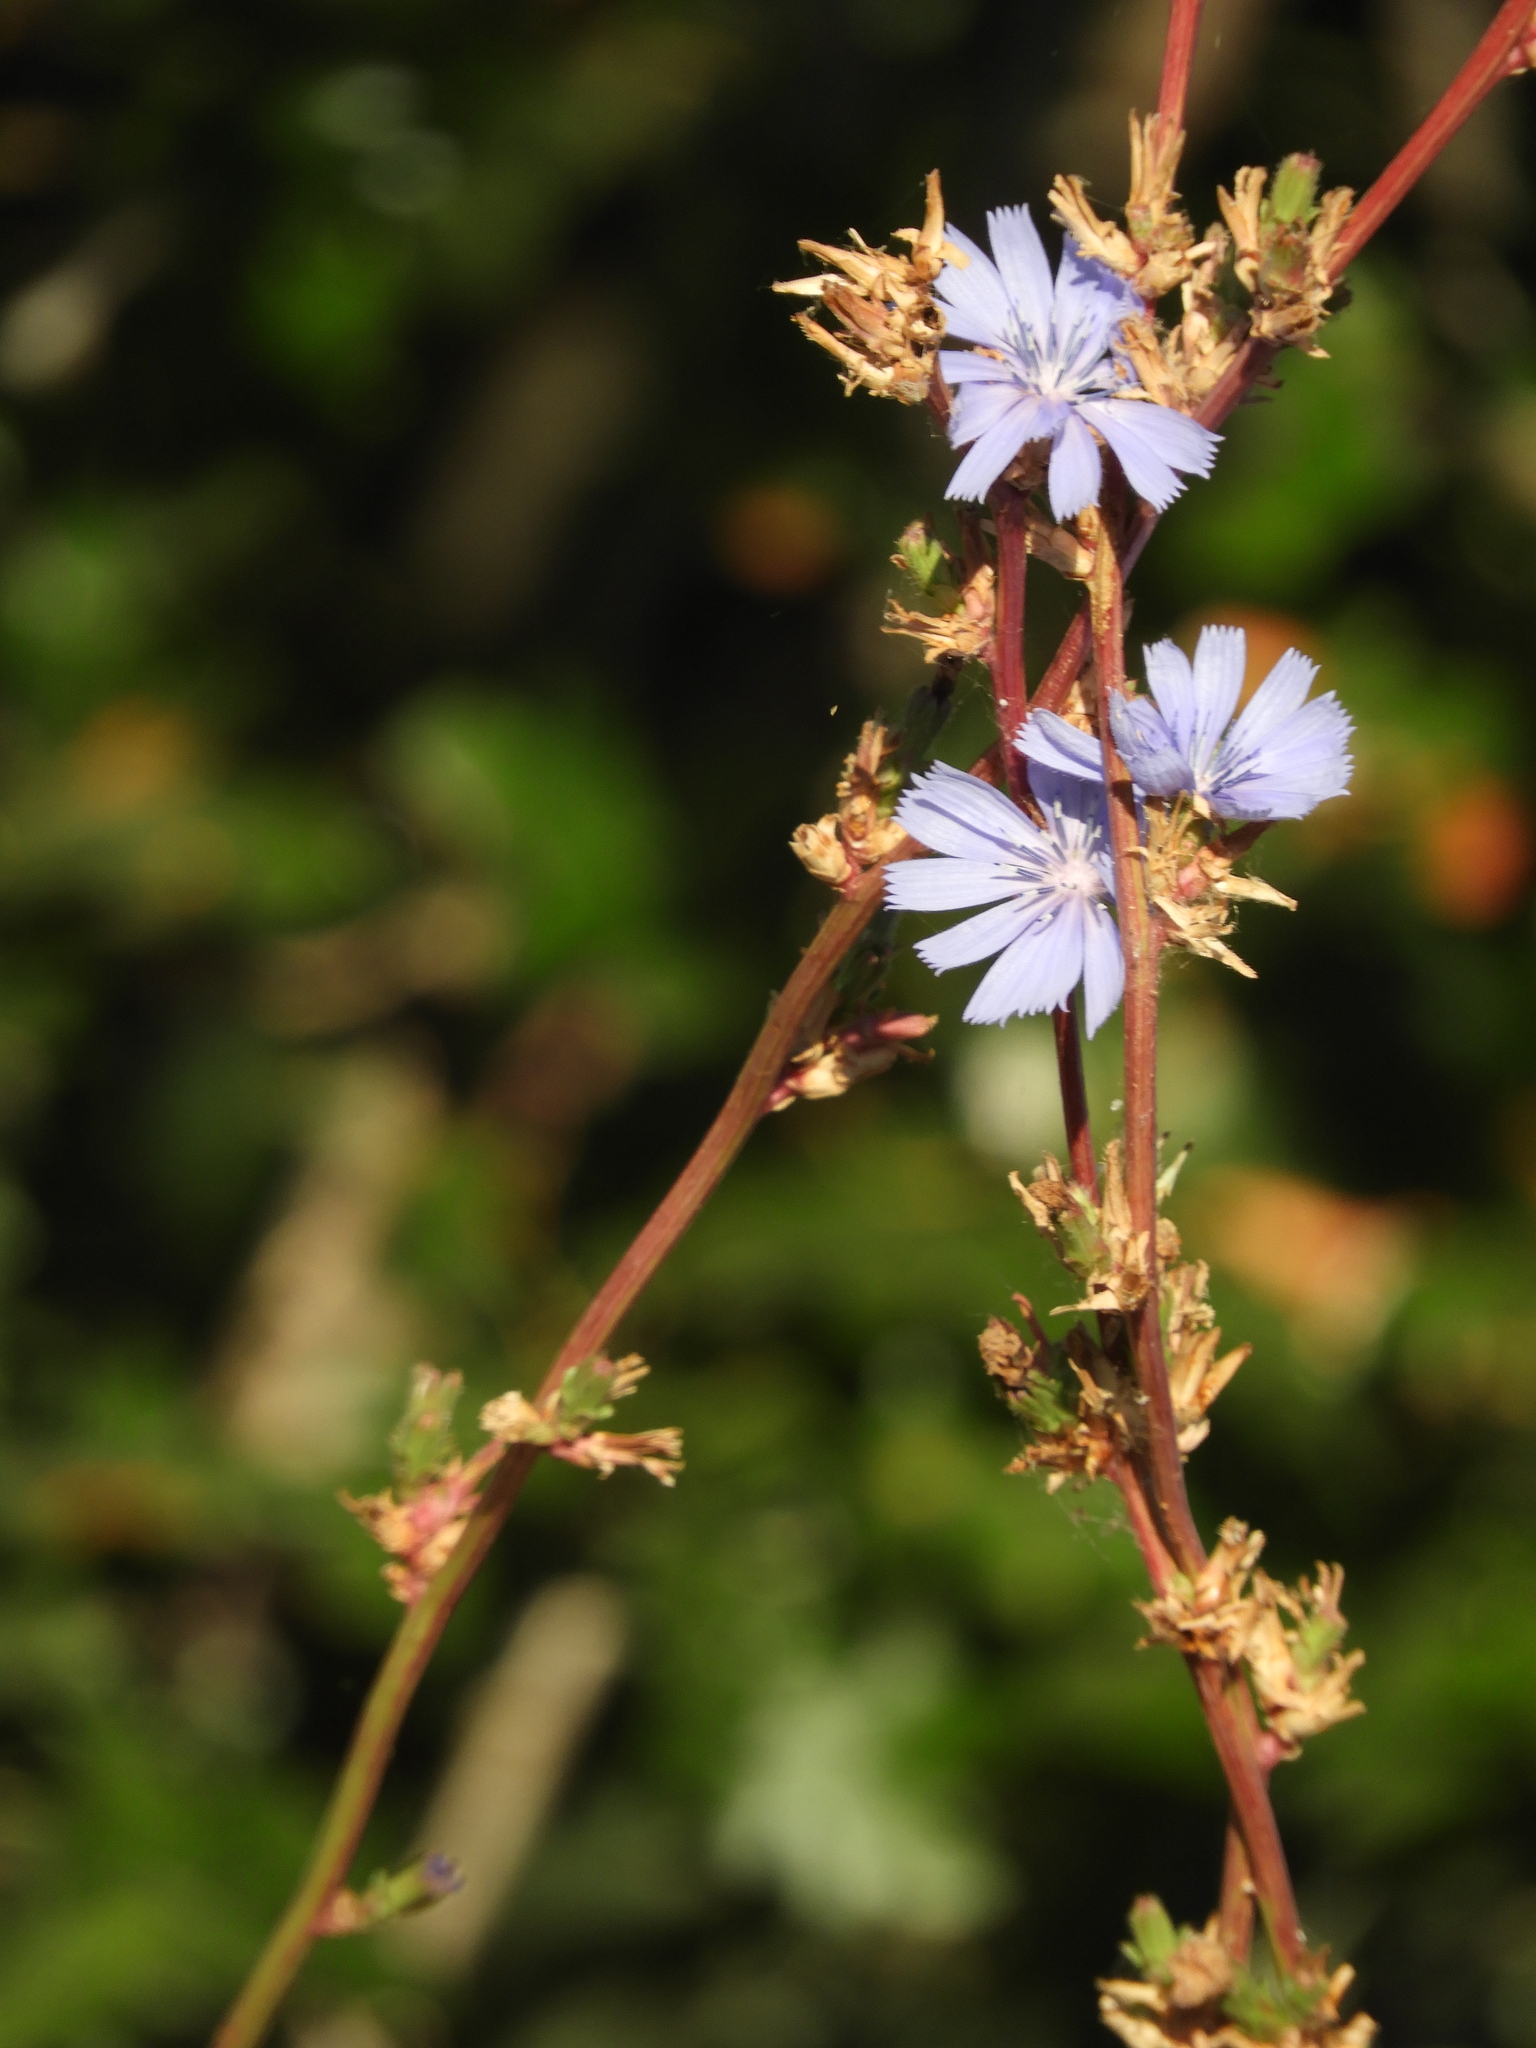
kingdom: Plantae
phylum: Tracheophyta
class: Magnoliopsida
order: Asterales
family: Asteraceae
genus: Cichorium
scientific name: Cichorium intybus
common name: Chicory
